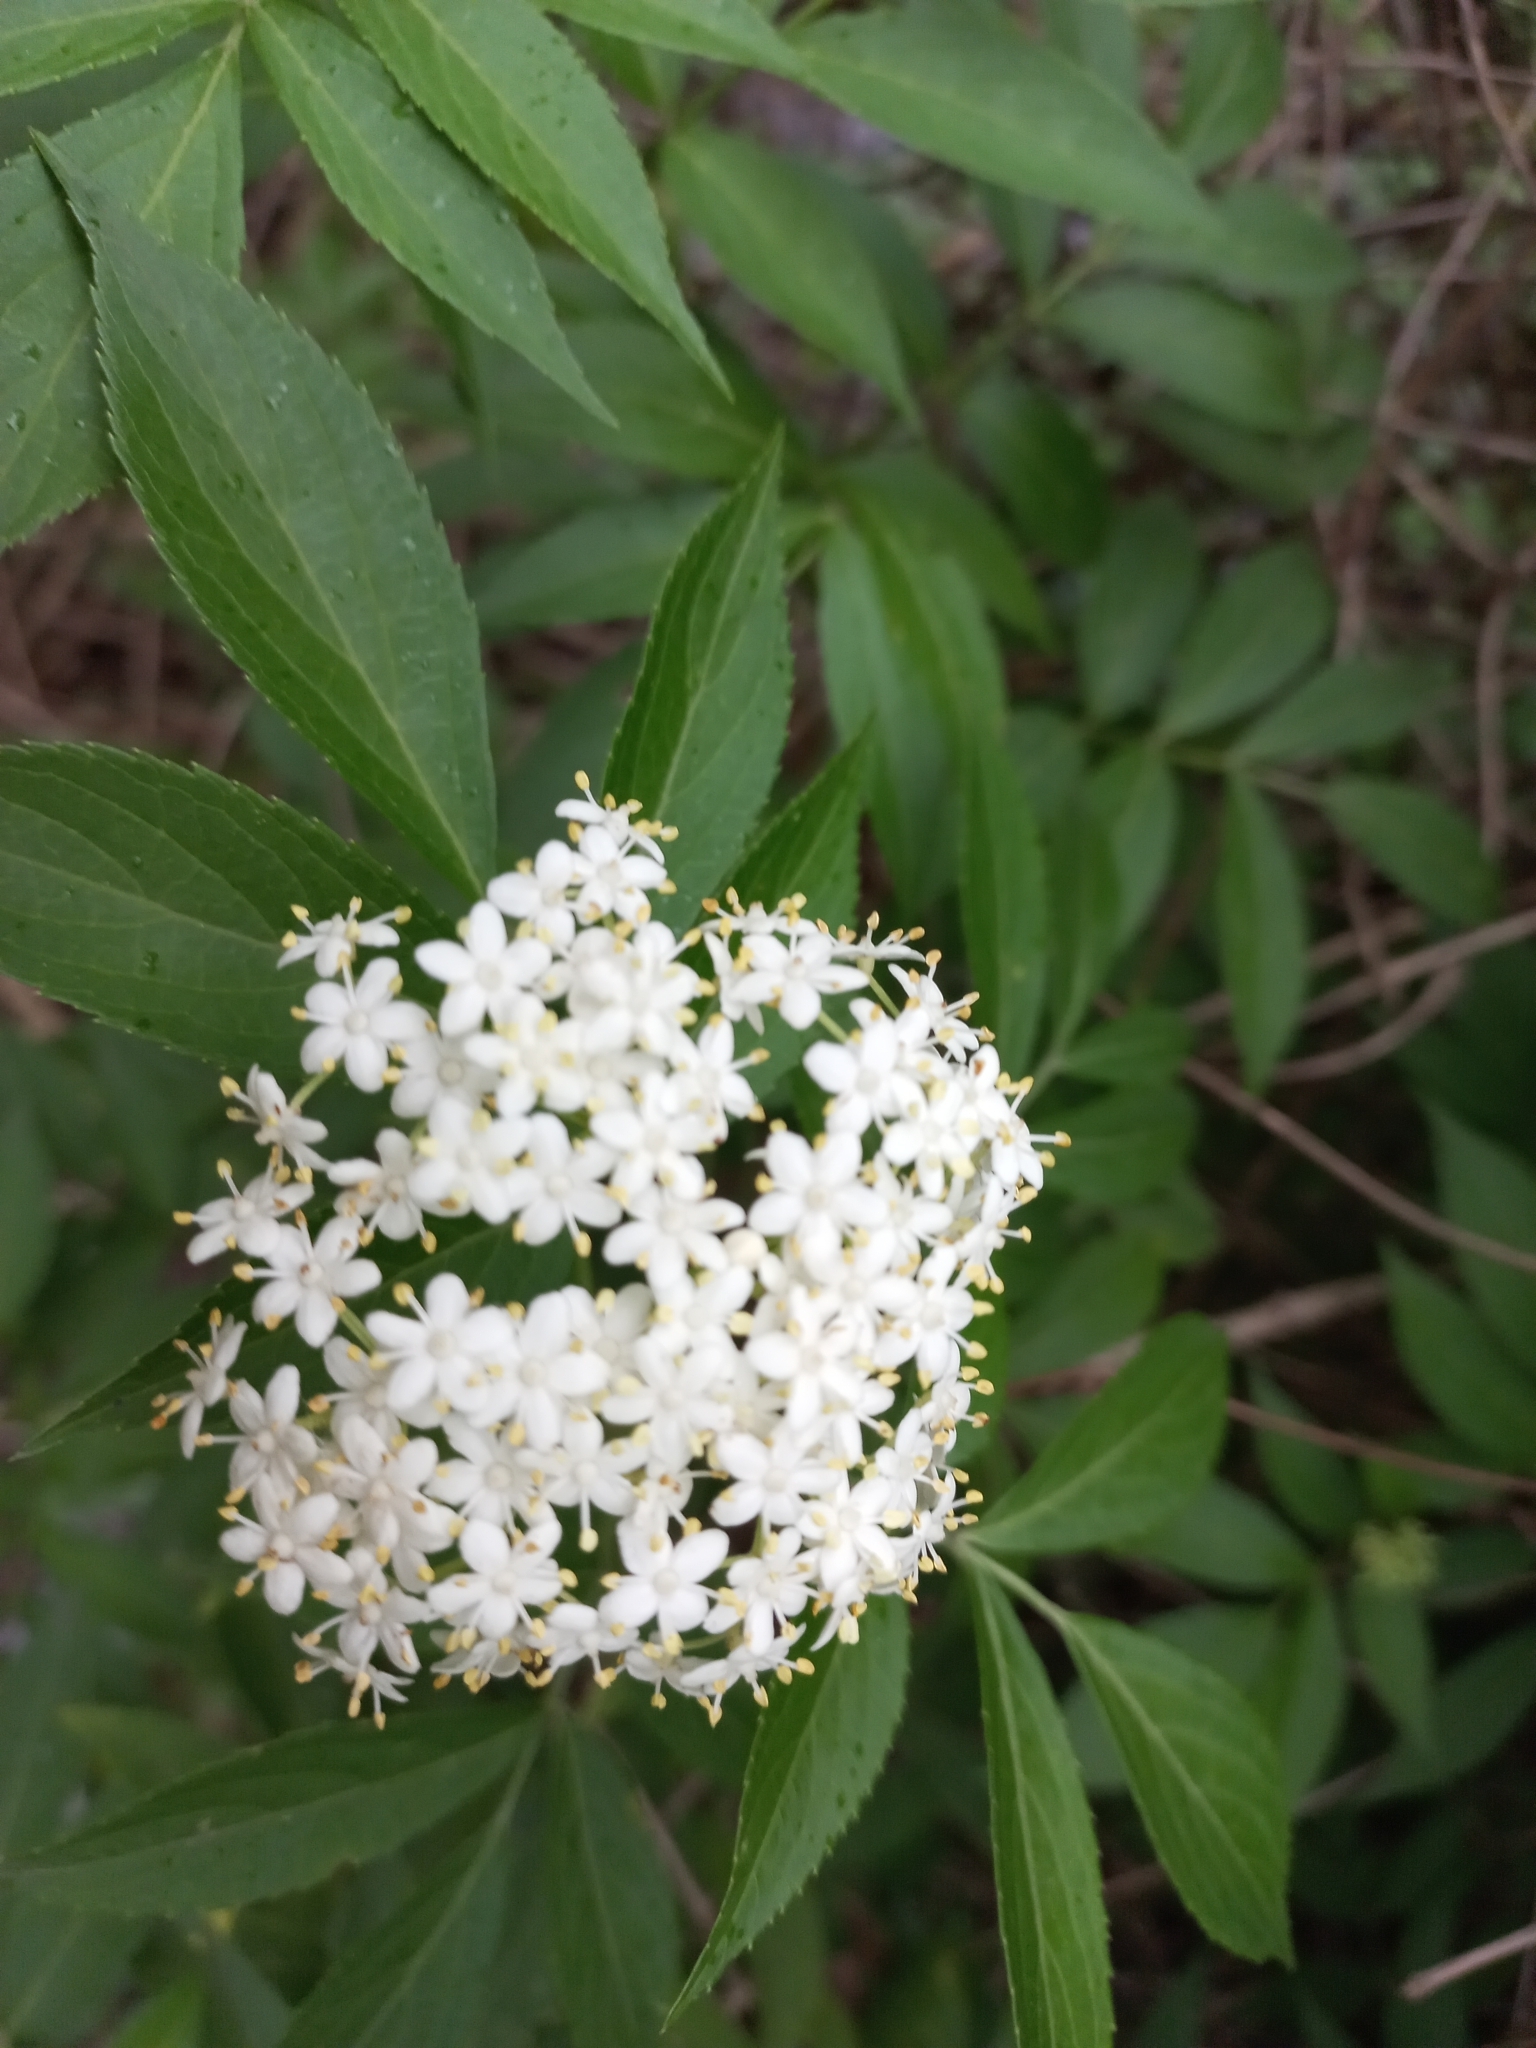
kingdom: Plantae
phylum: Tracheophyta
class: Magnoliopsida
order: Dipsacales
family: Viburnaceae
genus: Sambucus
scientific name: Sambucus nigra
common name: Elder
